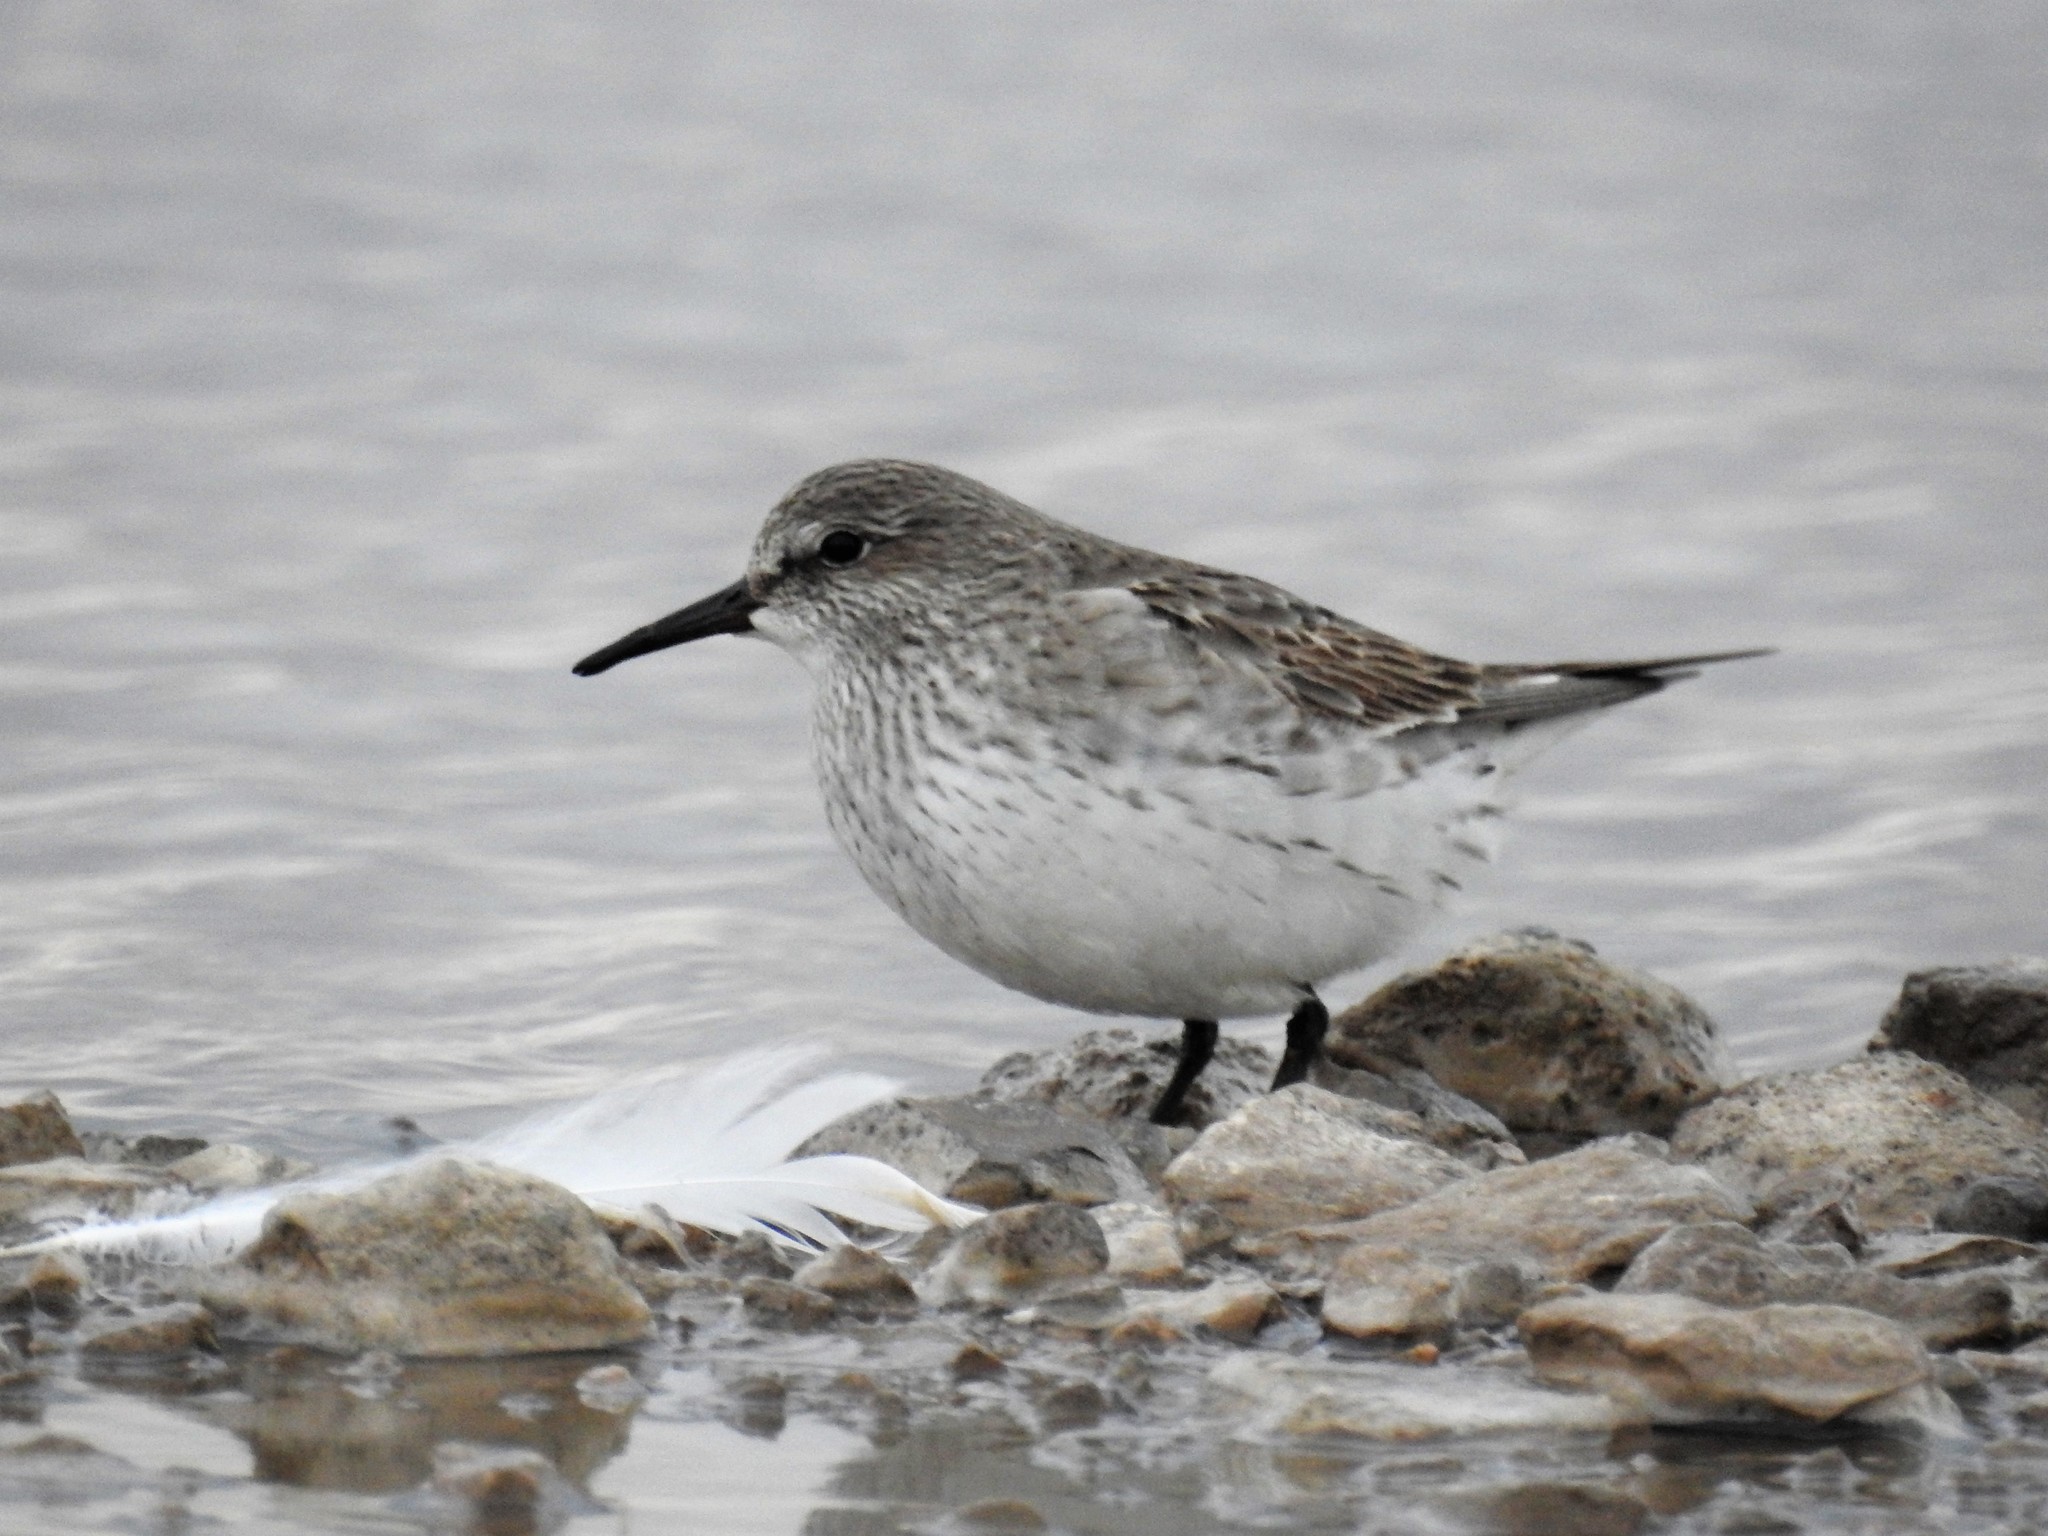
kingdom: Animalia
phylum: Chordata
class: Aves
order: Charadriiformes
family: Scolopacidae
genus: Calidris
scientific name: Calidris fuscicollis
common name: White-rumped sandpiper
